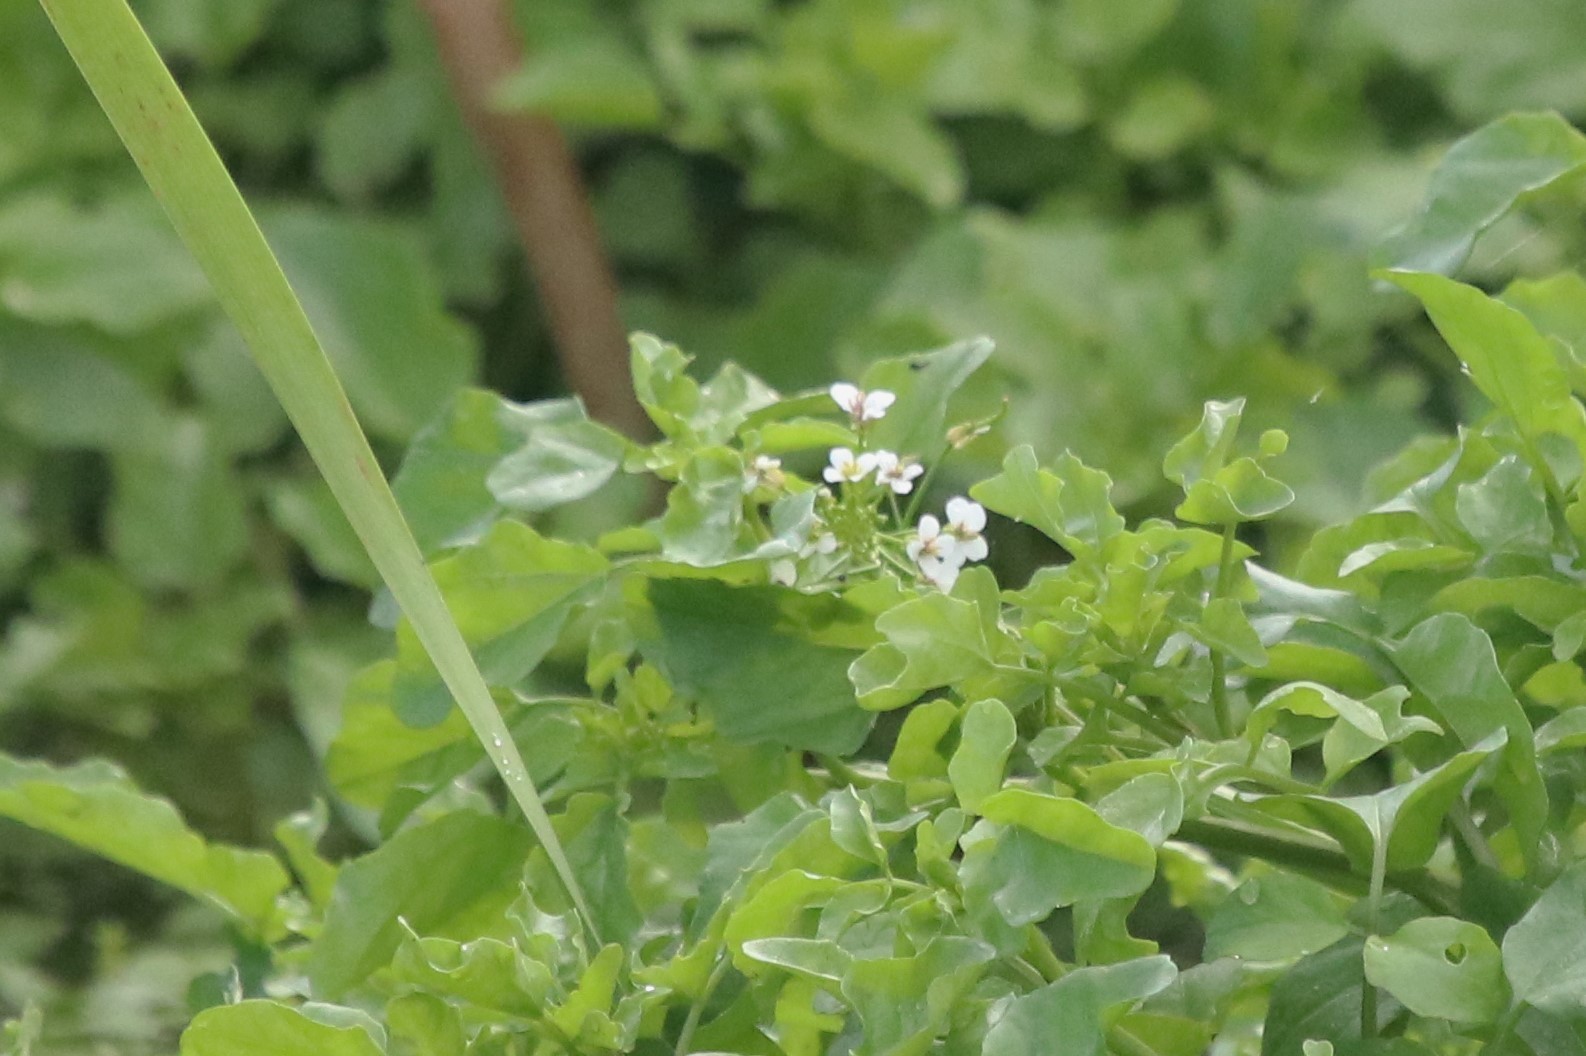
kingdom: Plantae
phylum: Tracheophyta
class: Magnoliopsida
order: Brassicales
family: Brassicaceae
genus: Nasturtium
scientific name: Nasturtium officinale
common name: Watercress
